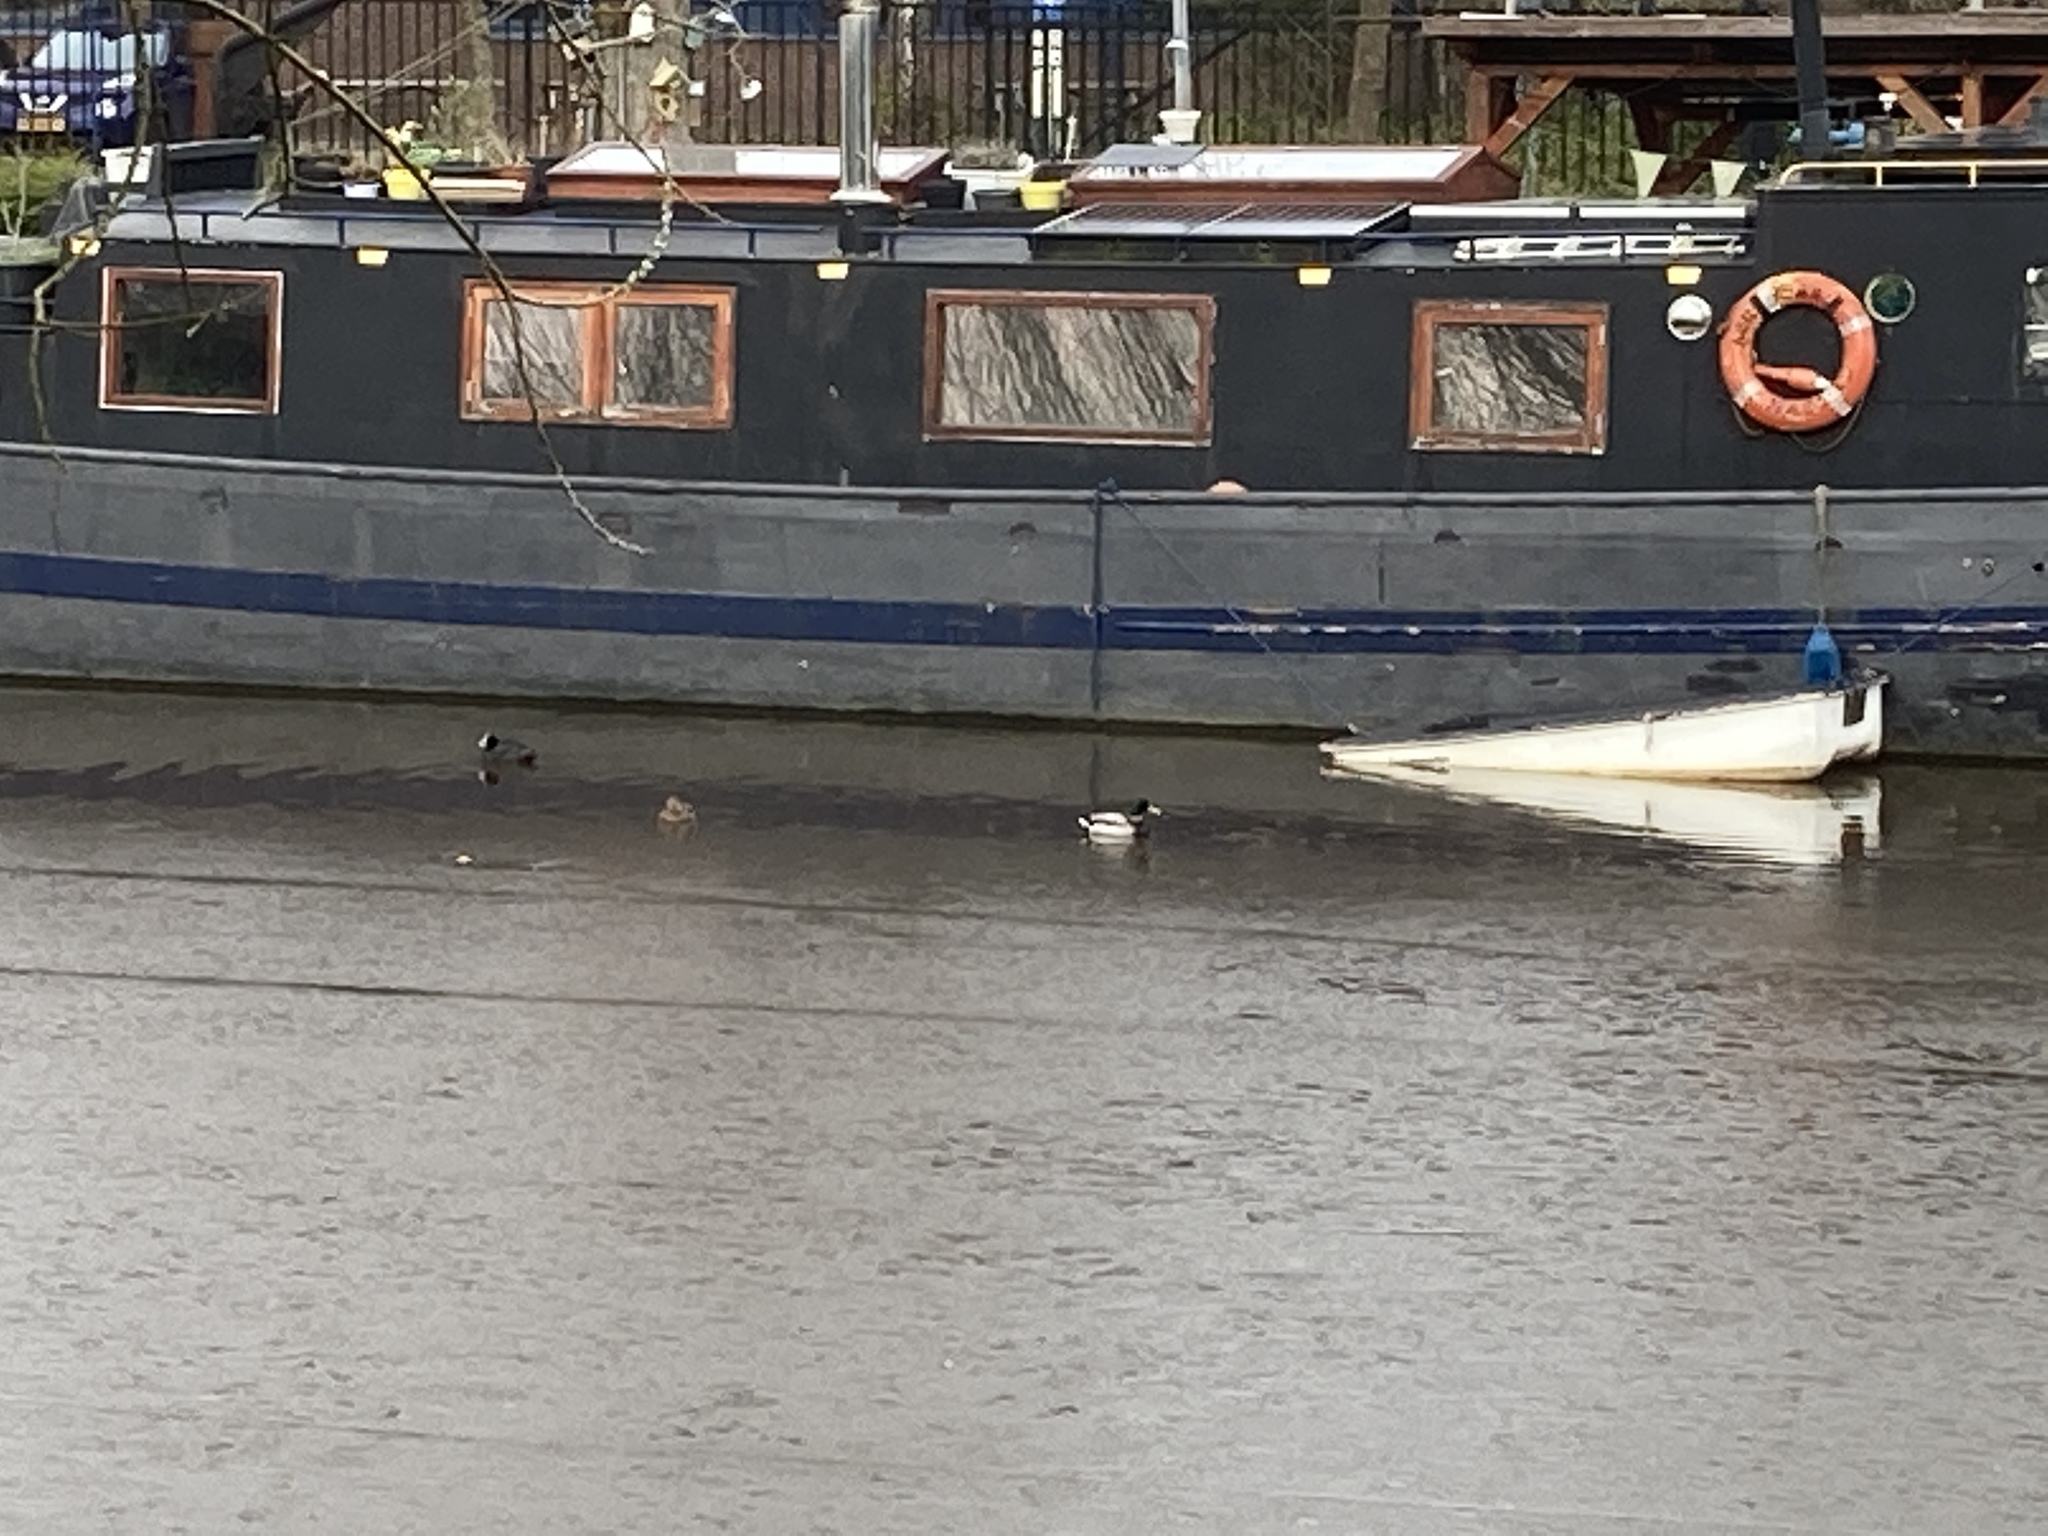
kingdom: Animalia
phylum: Chordata
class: Aves
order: Anseriformes
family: Anatidae
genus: Anas
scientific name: Anas platyrhynchos
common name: Mallard
